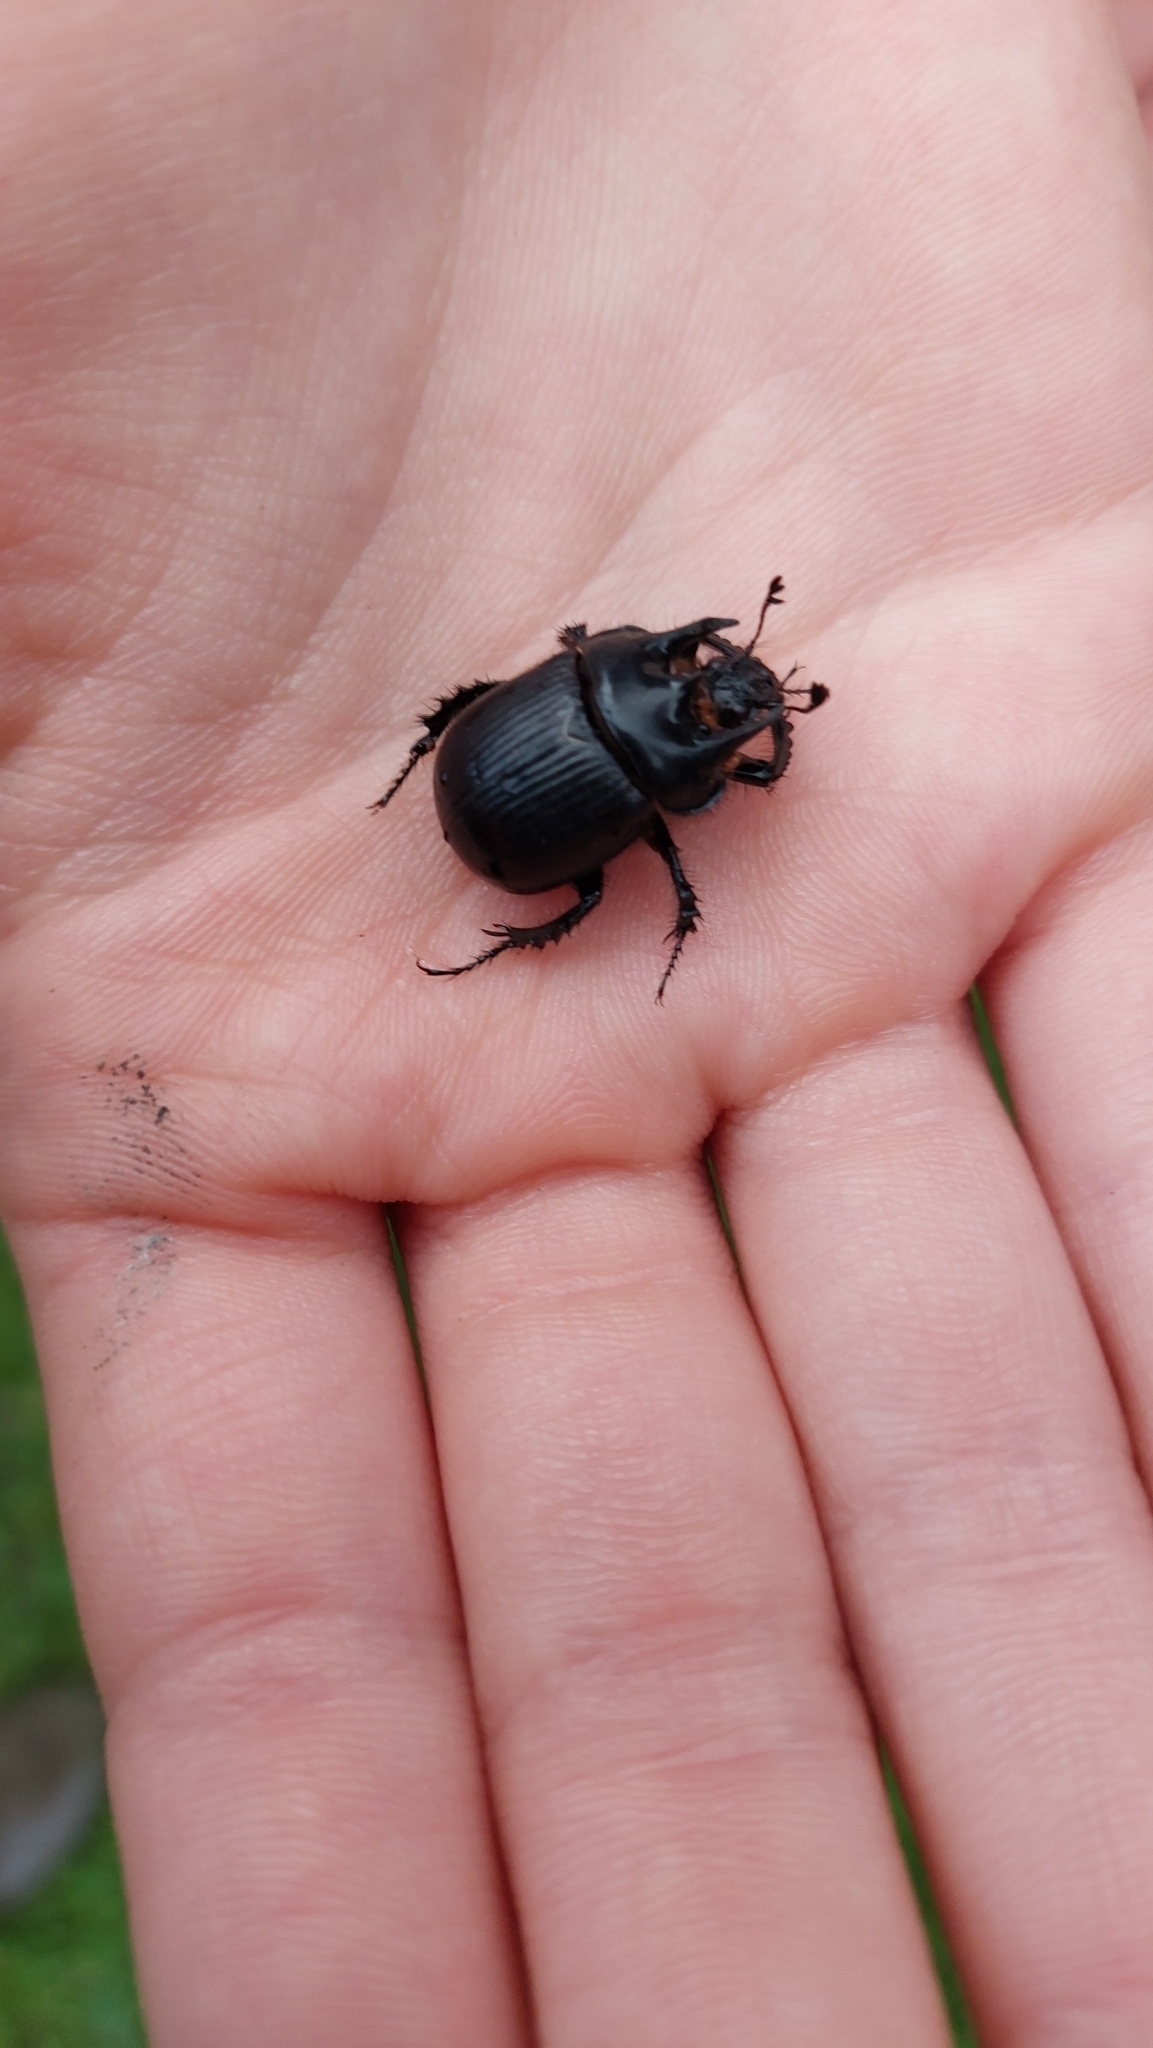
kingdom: Animalia
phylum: Arthropoda
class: Insecta
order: Coleoptera
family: Geotrupidae
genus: Typhaeus
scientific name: Typhaeus typhoeus
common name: Minotaur beetle
